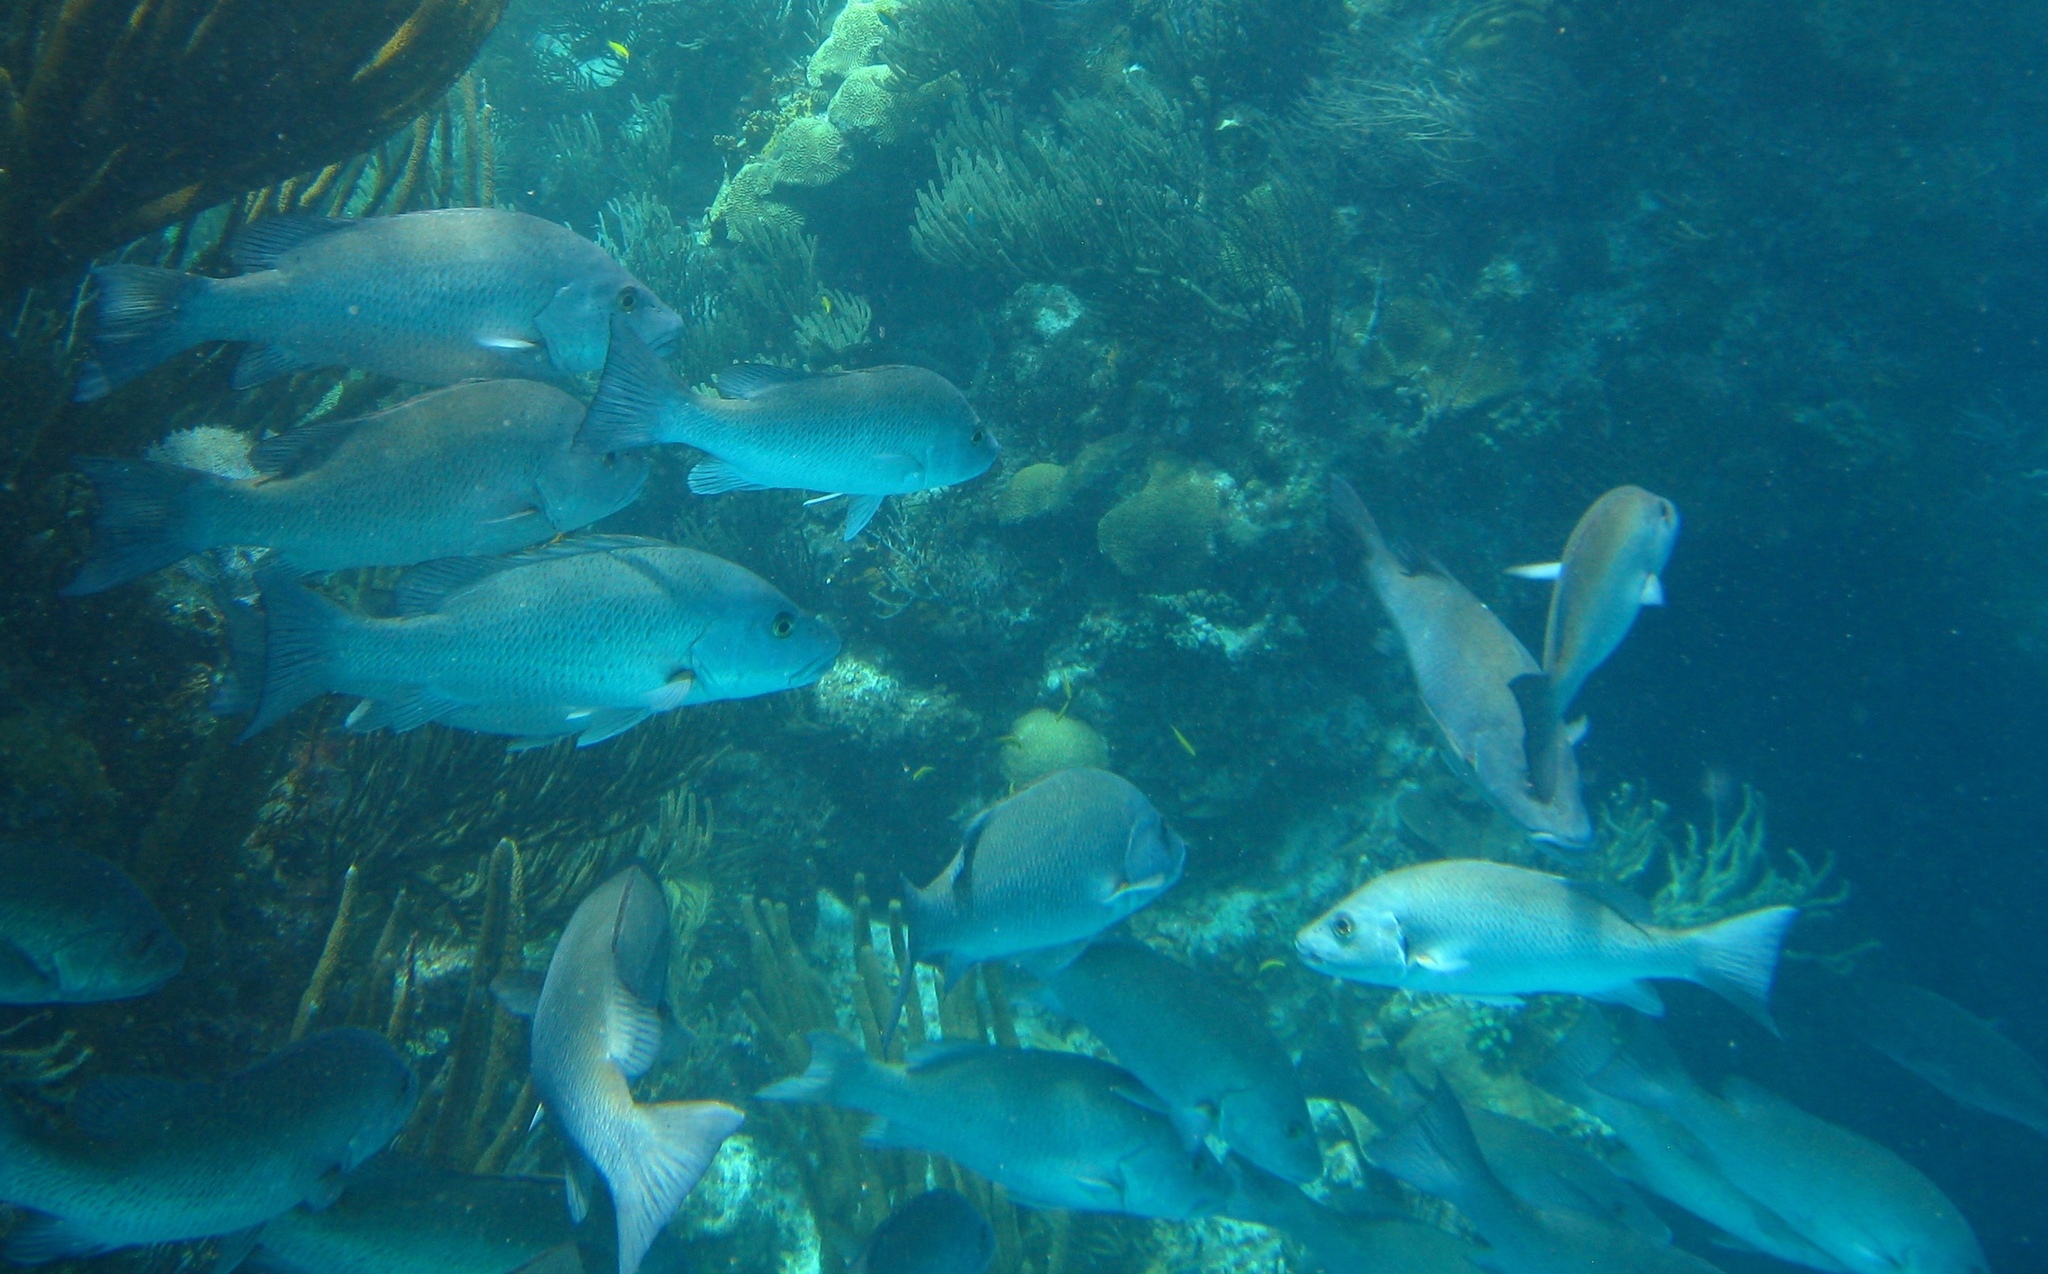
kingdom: Animalia
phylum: Chordata
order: Perciformes
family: Lutjanidae
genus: Lutjanus
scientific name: Lutjanus griseus
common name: Gray snapper
